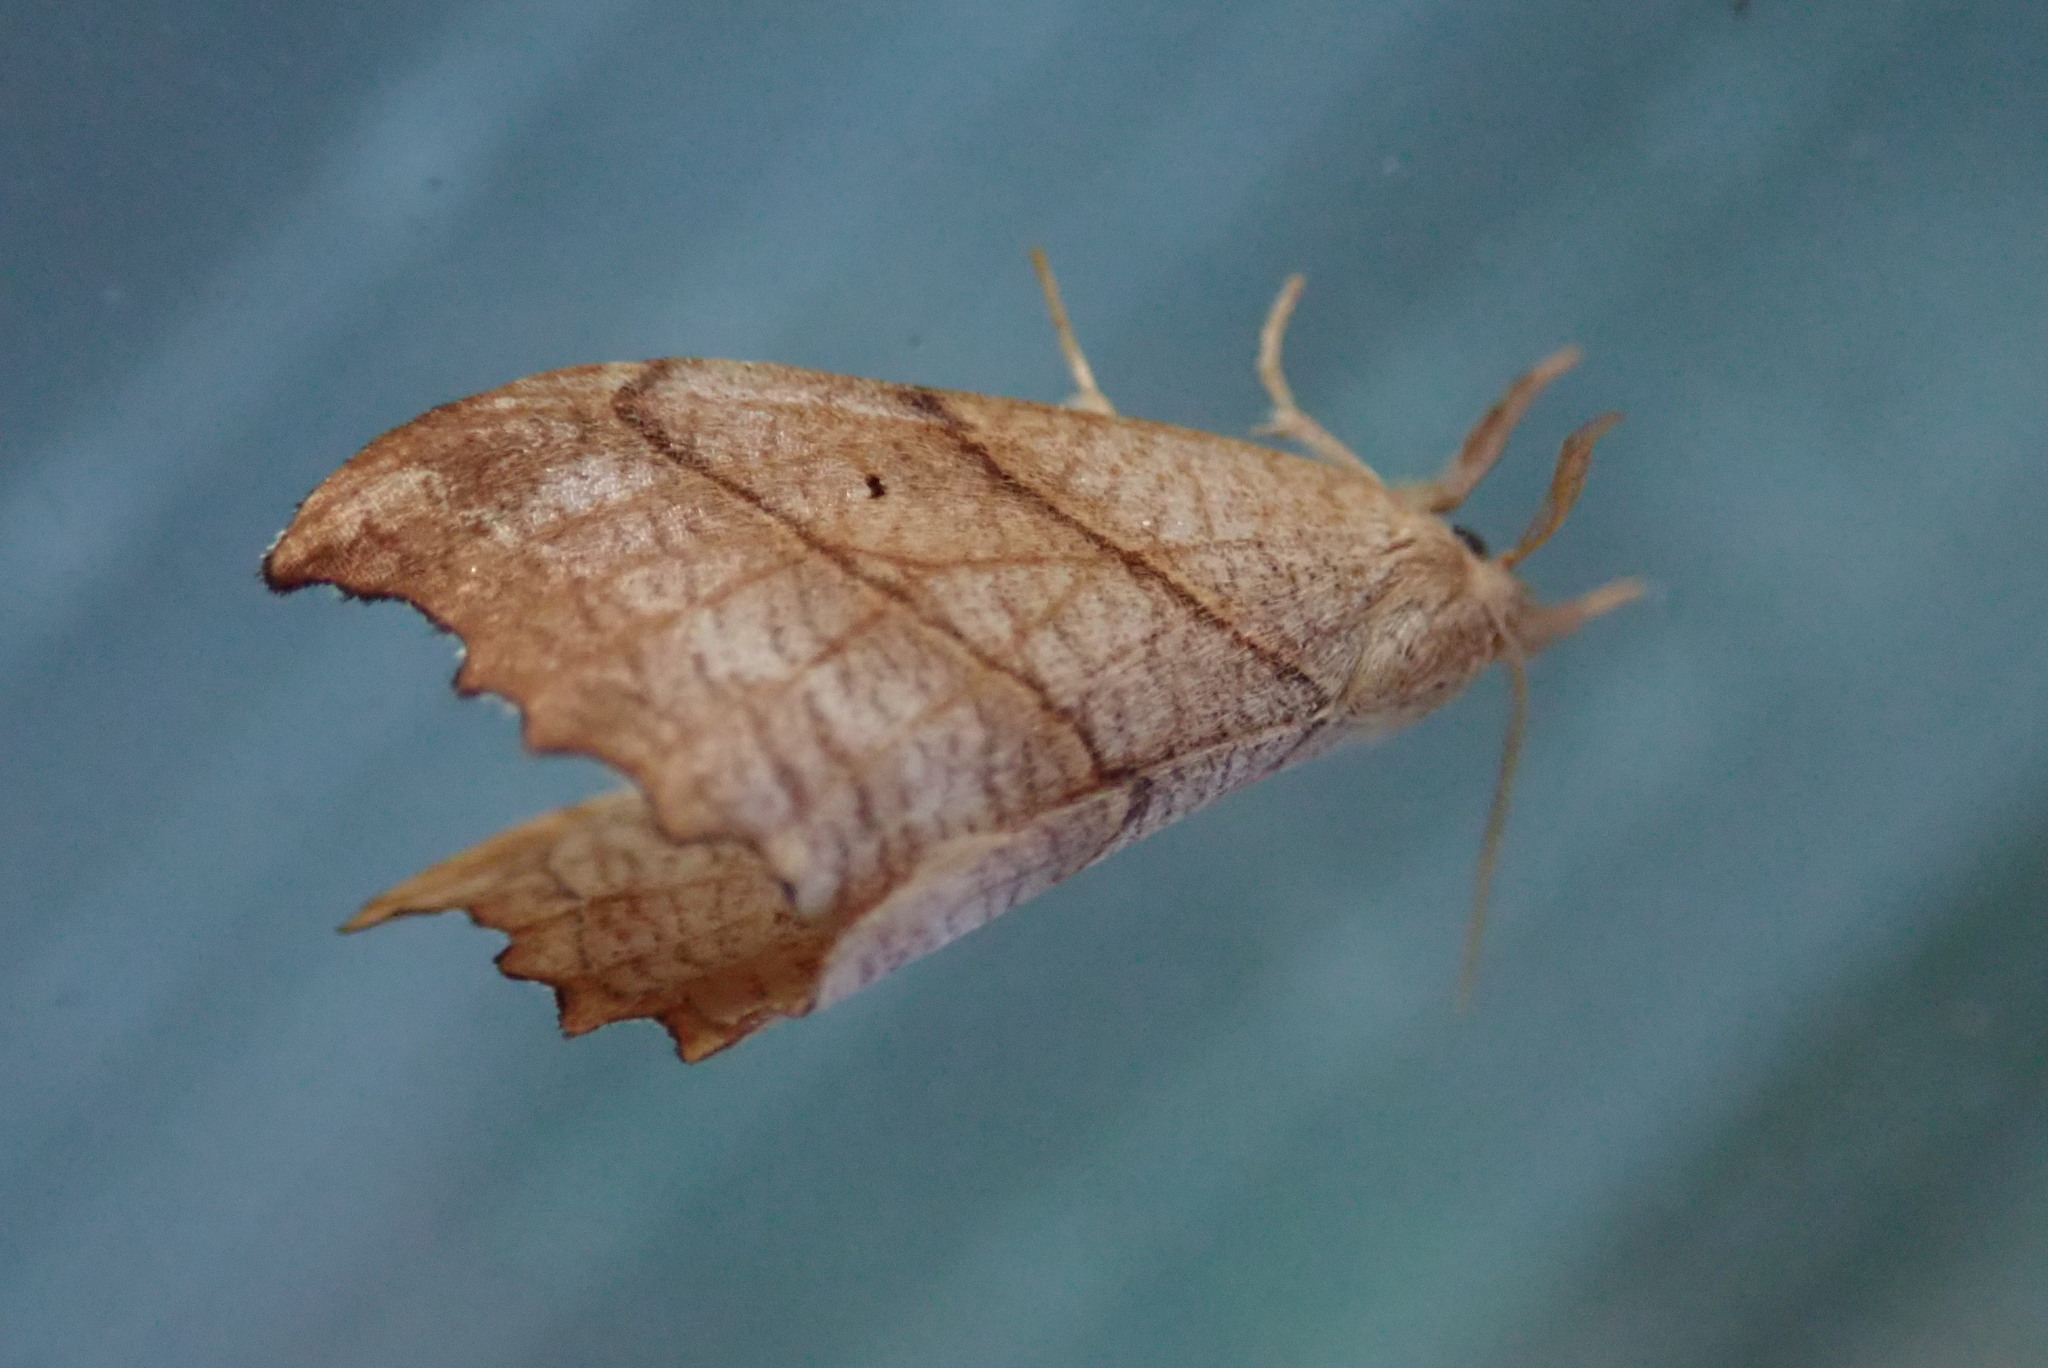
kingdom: Animalia
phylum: Arthropoda
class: Insecta
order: Lepidoptera
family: Drepanidae
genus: Falcaria
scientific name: Falcaria bilineata
